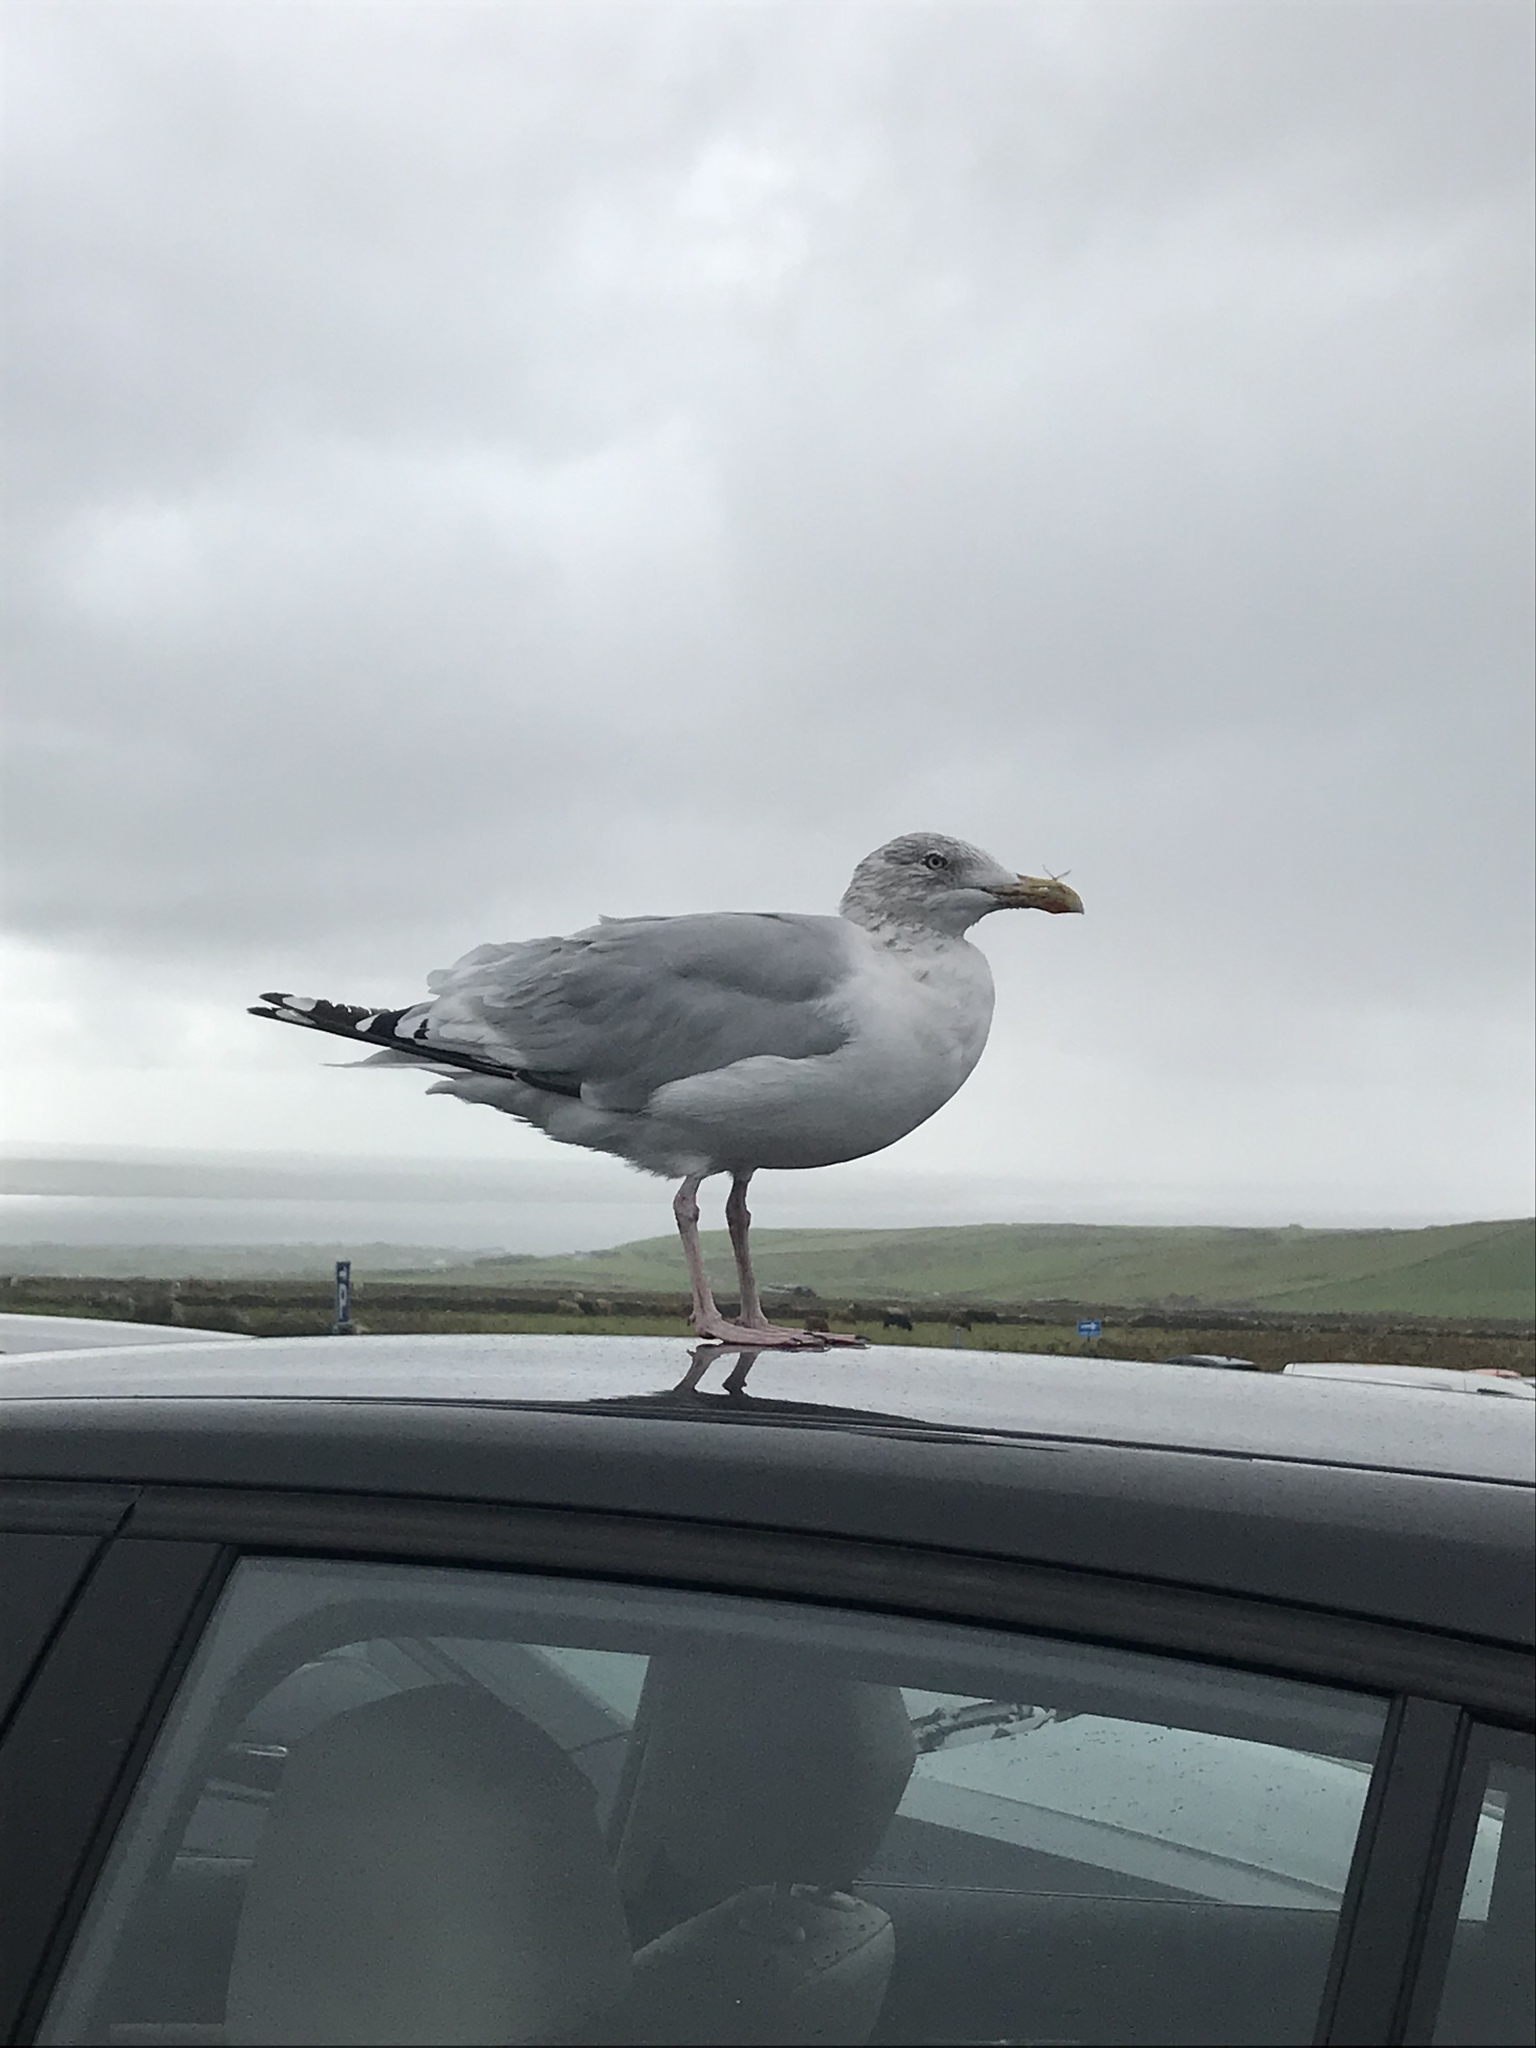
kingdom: Animalia
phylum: Chordata
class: Aves
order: Charadriiformes
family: Laridae
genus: Larus
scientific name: Larus argentatus
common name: Herring gull
